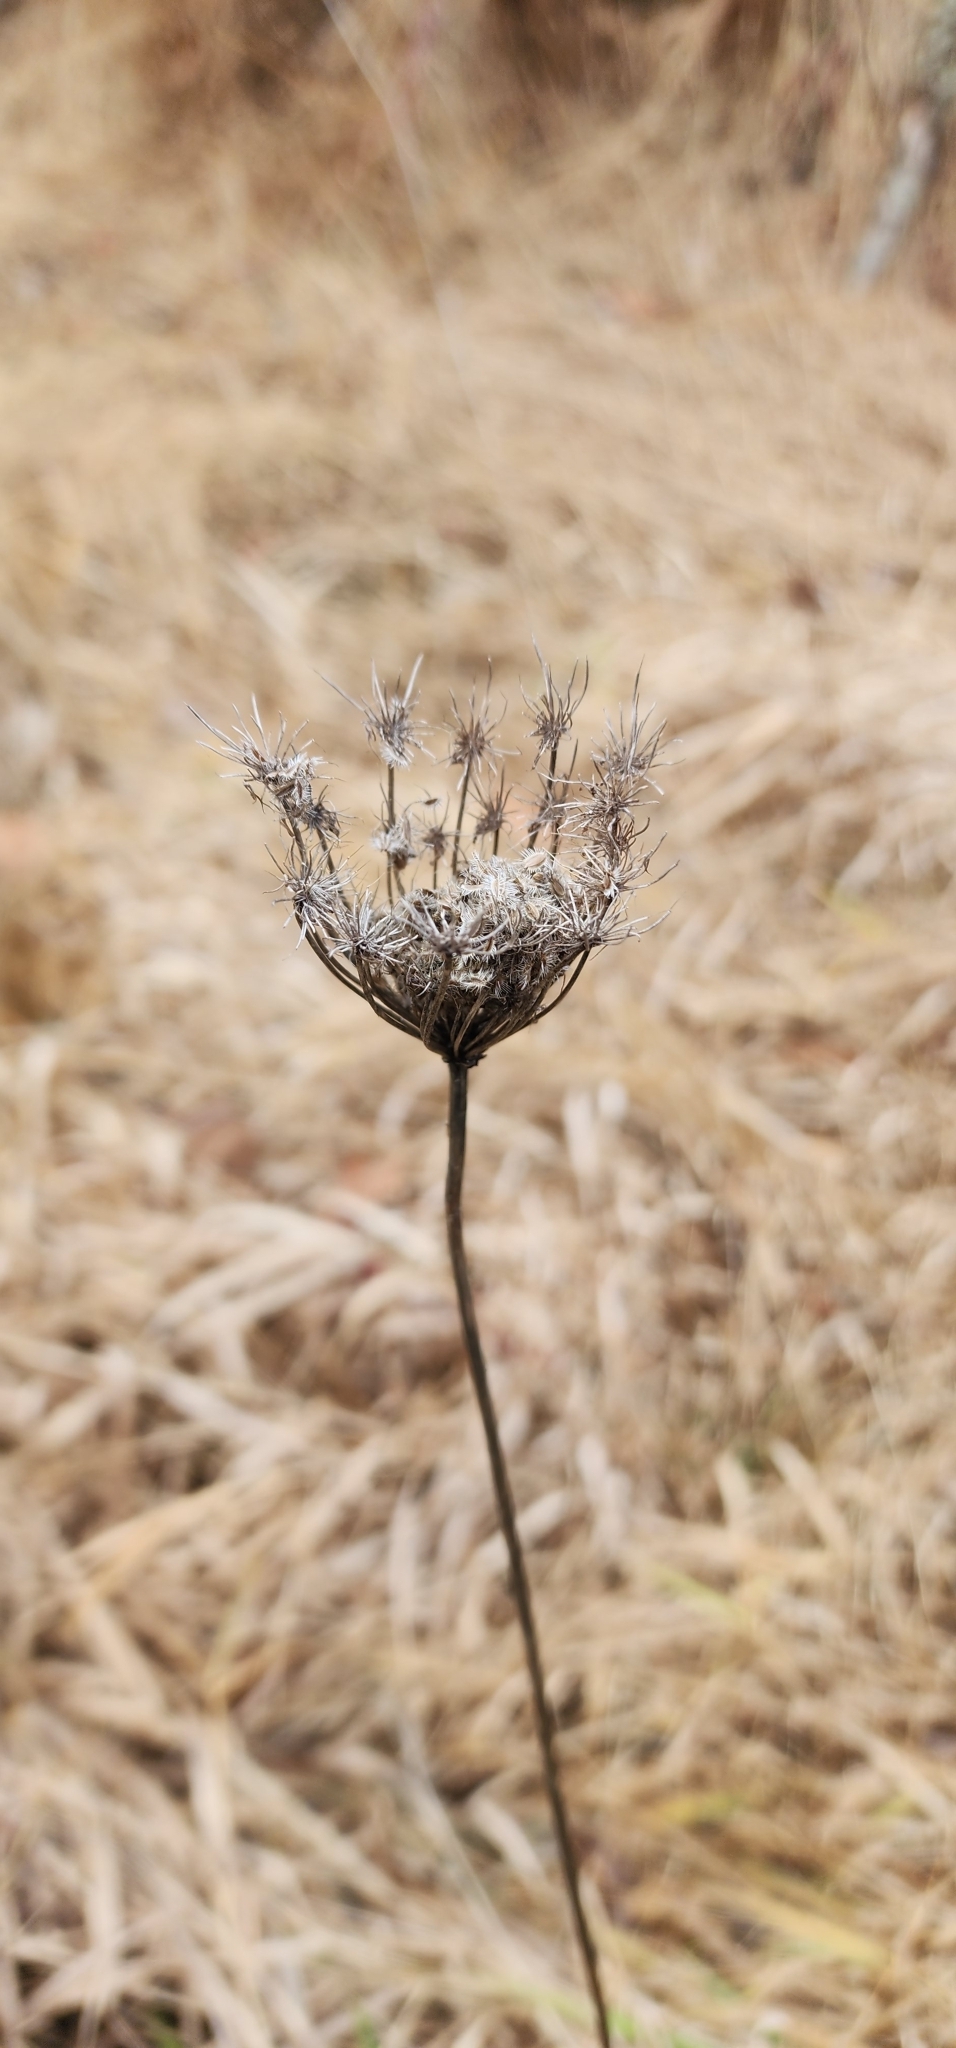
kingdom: Plantae
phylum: Tracheophyta
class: Magnoliopsida
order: Apiales
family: Apiaceae
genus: Daucus
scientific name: Daucus carota
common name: Wild carrot
